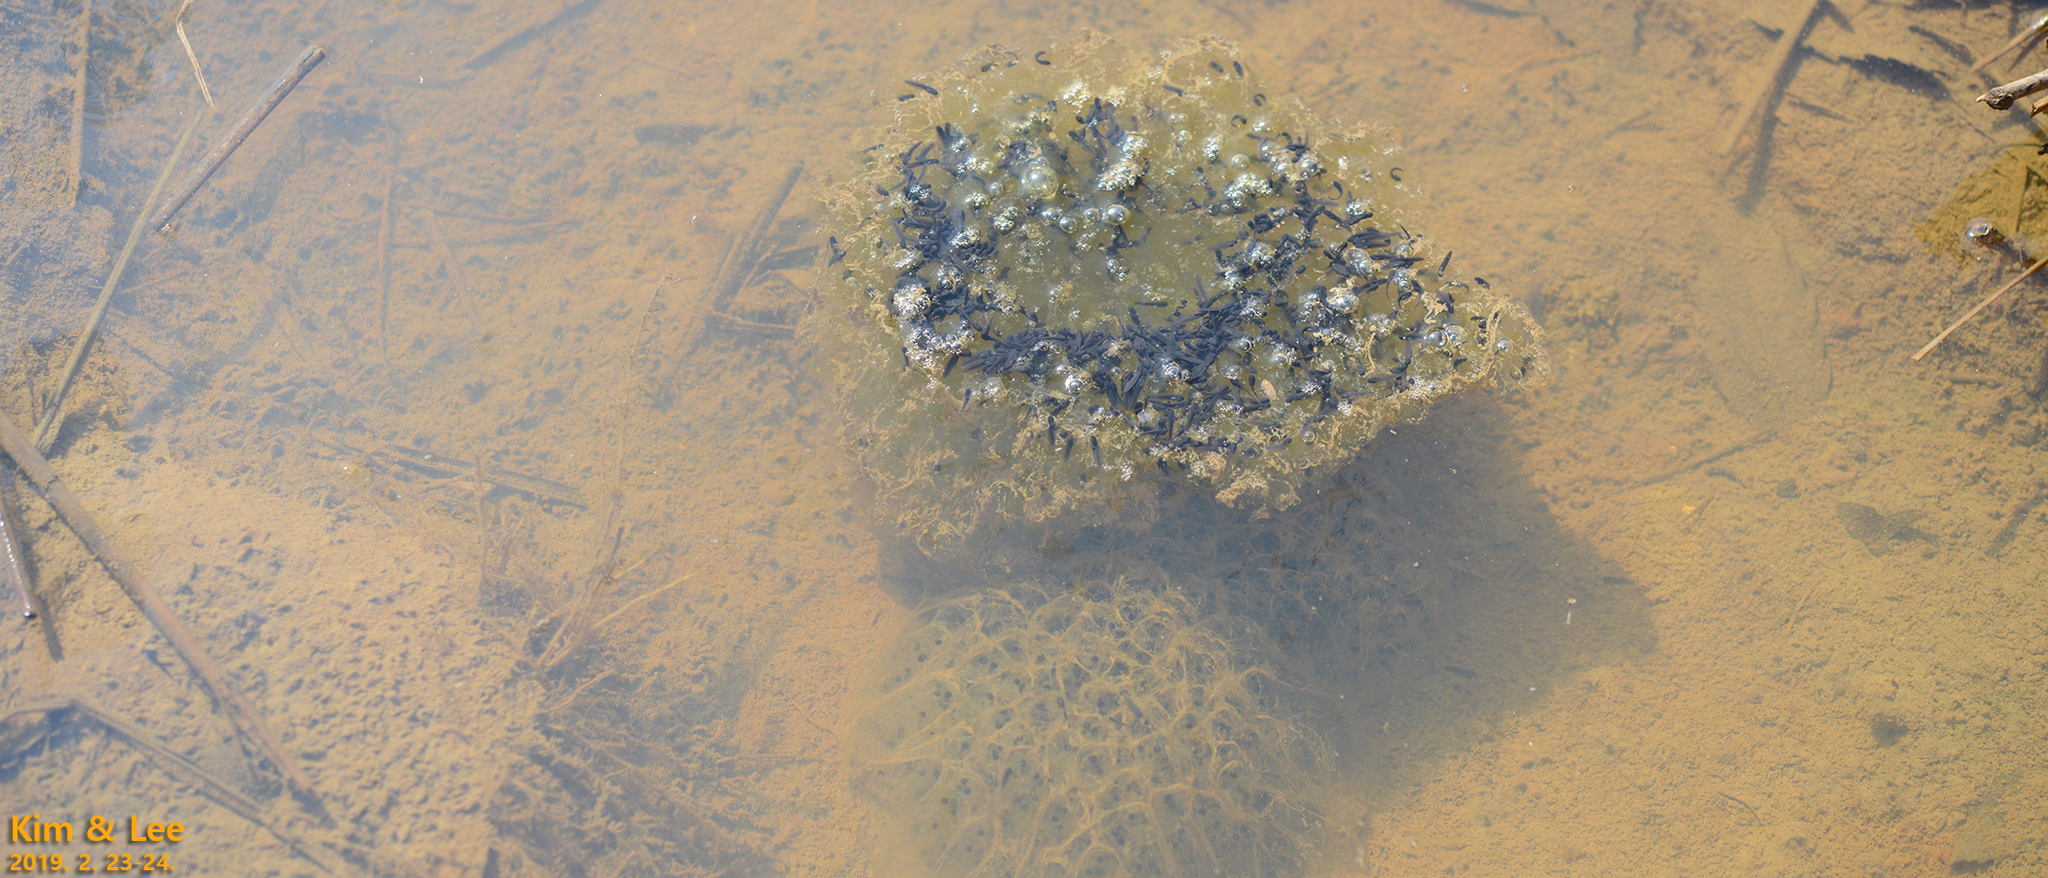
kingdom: Animalia
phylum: Chordata
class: Amphibia
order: Anura
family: Ranidae
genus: Rana
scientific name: Rana uenoi
